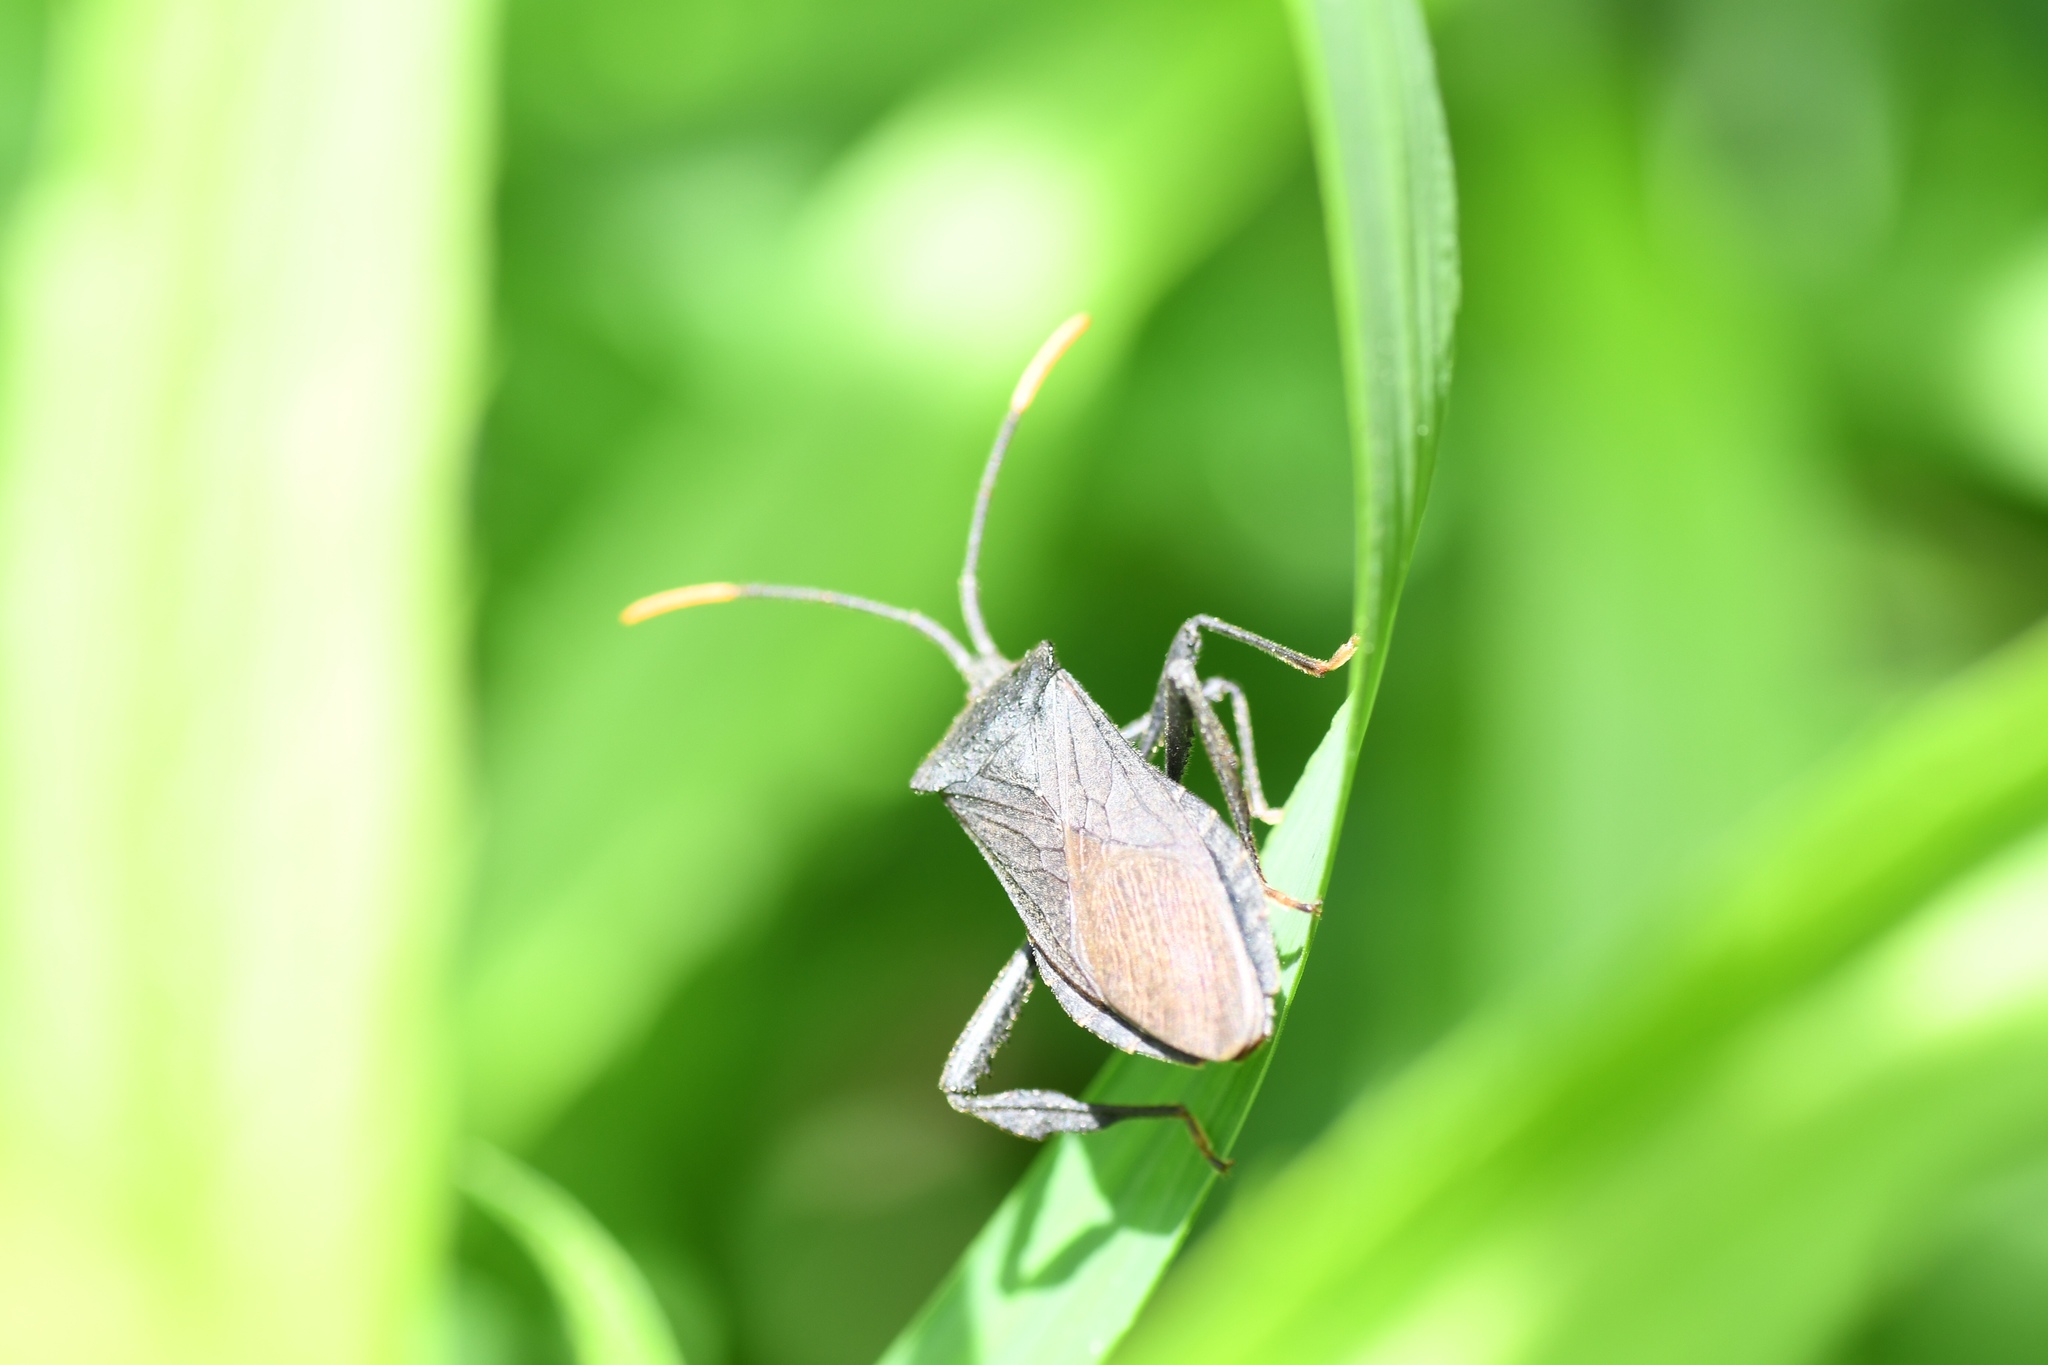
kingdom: Animalia
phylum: Arthropoda
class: Insecta
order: Hemiptera
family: Coreidae
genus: Acanthocephala
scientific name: Acanthocephala terminalis
